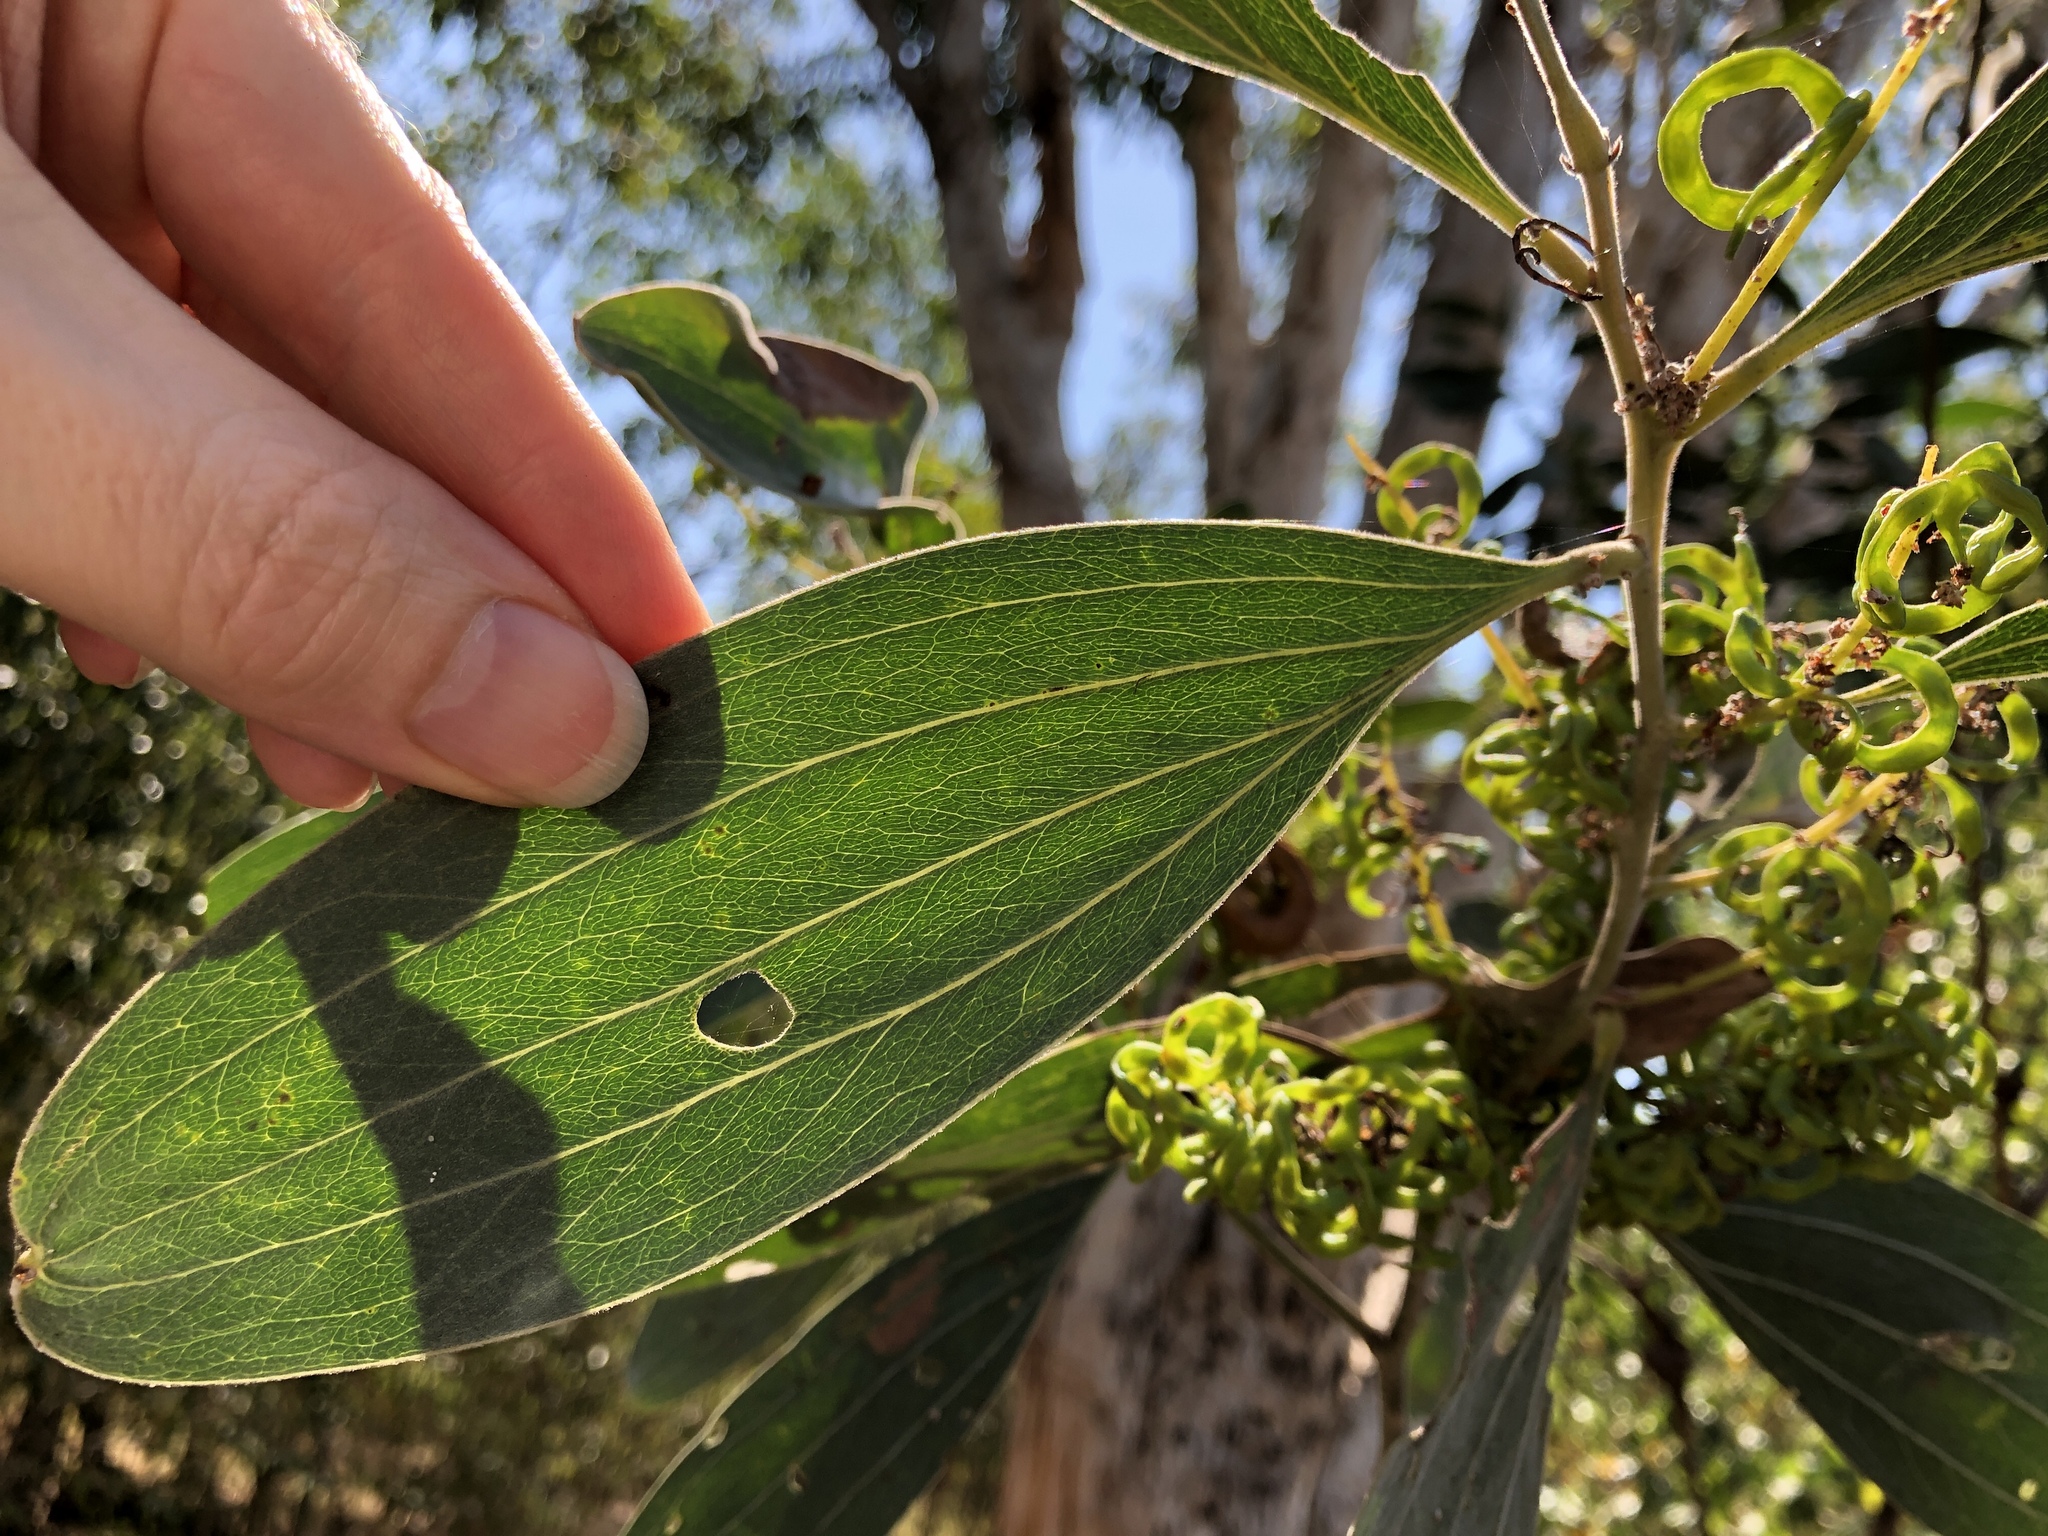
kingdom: Plantae
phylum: Tracheophyta
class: Magnoliopsida
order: Fabales
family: Fabaceae
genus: Acacia
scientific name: Acacia holosericea
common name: Candelabra wattle
